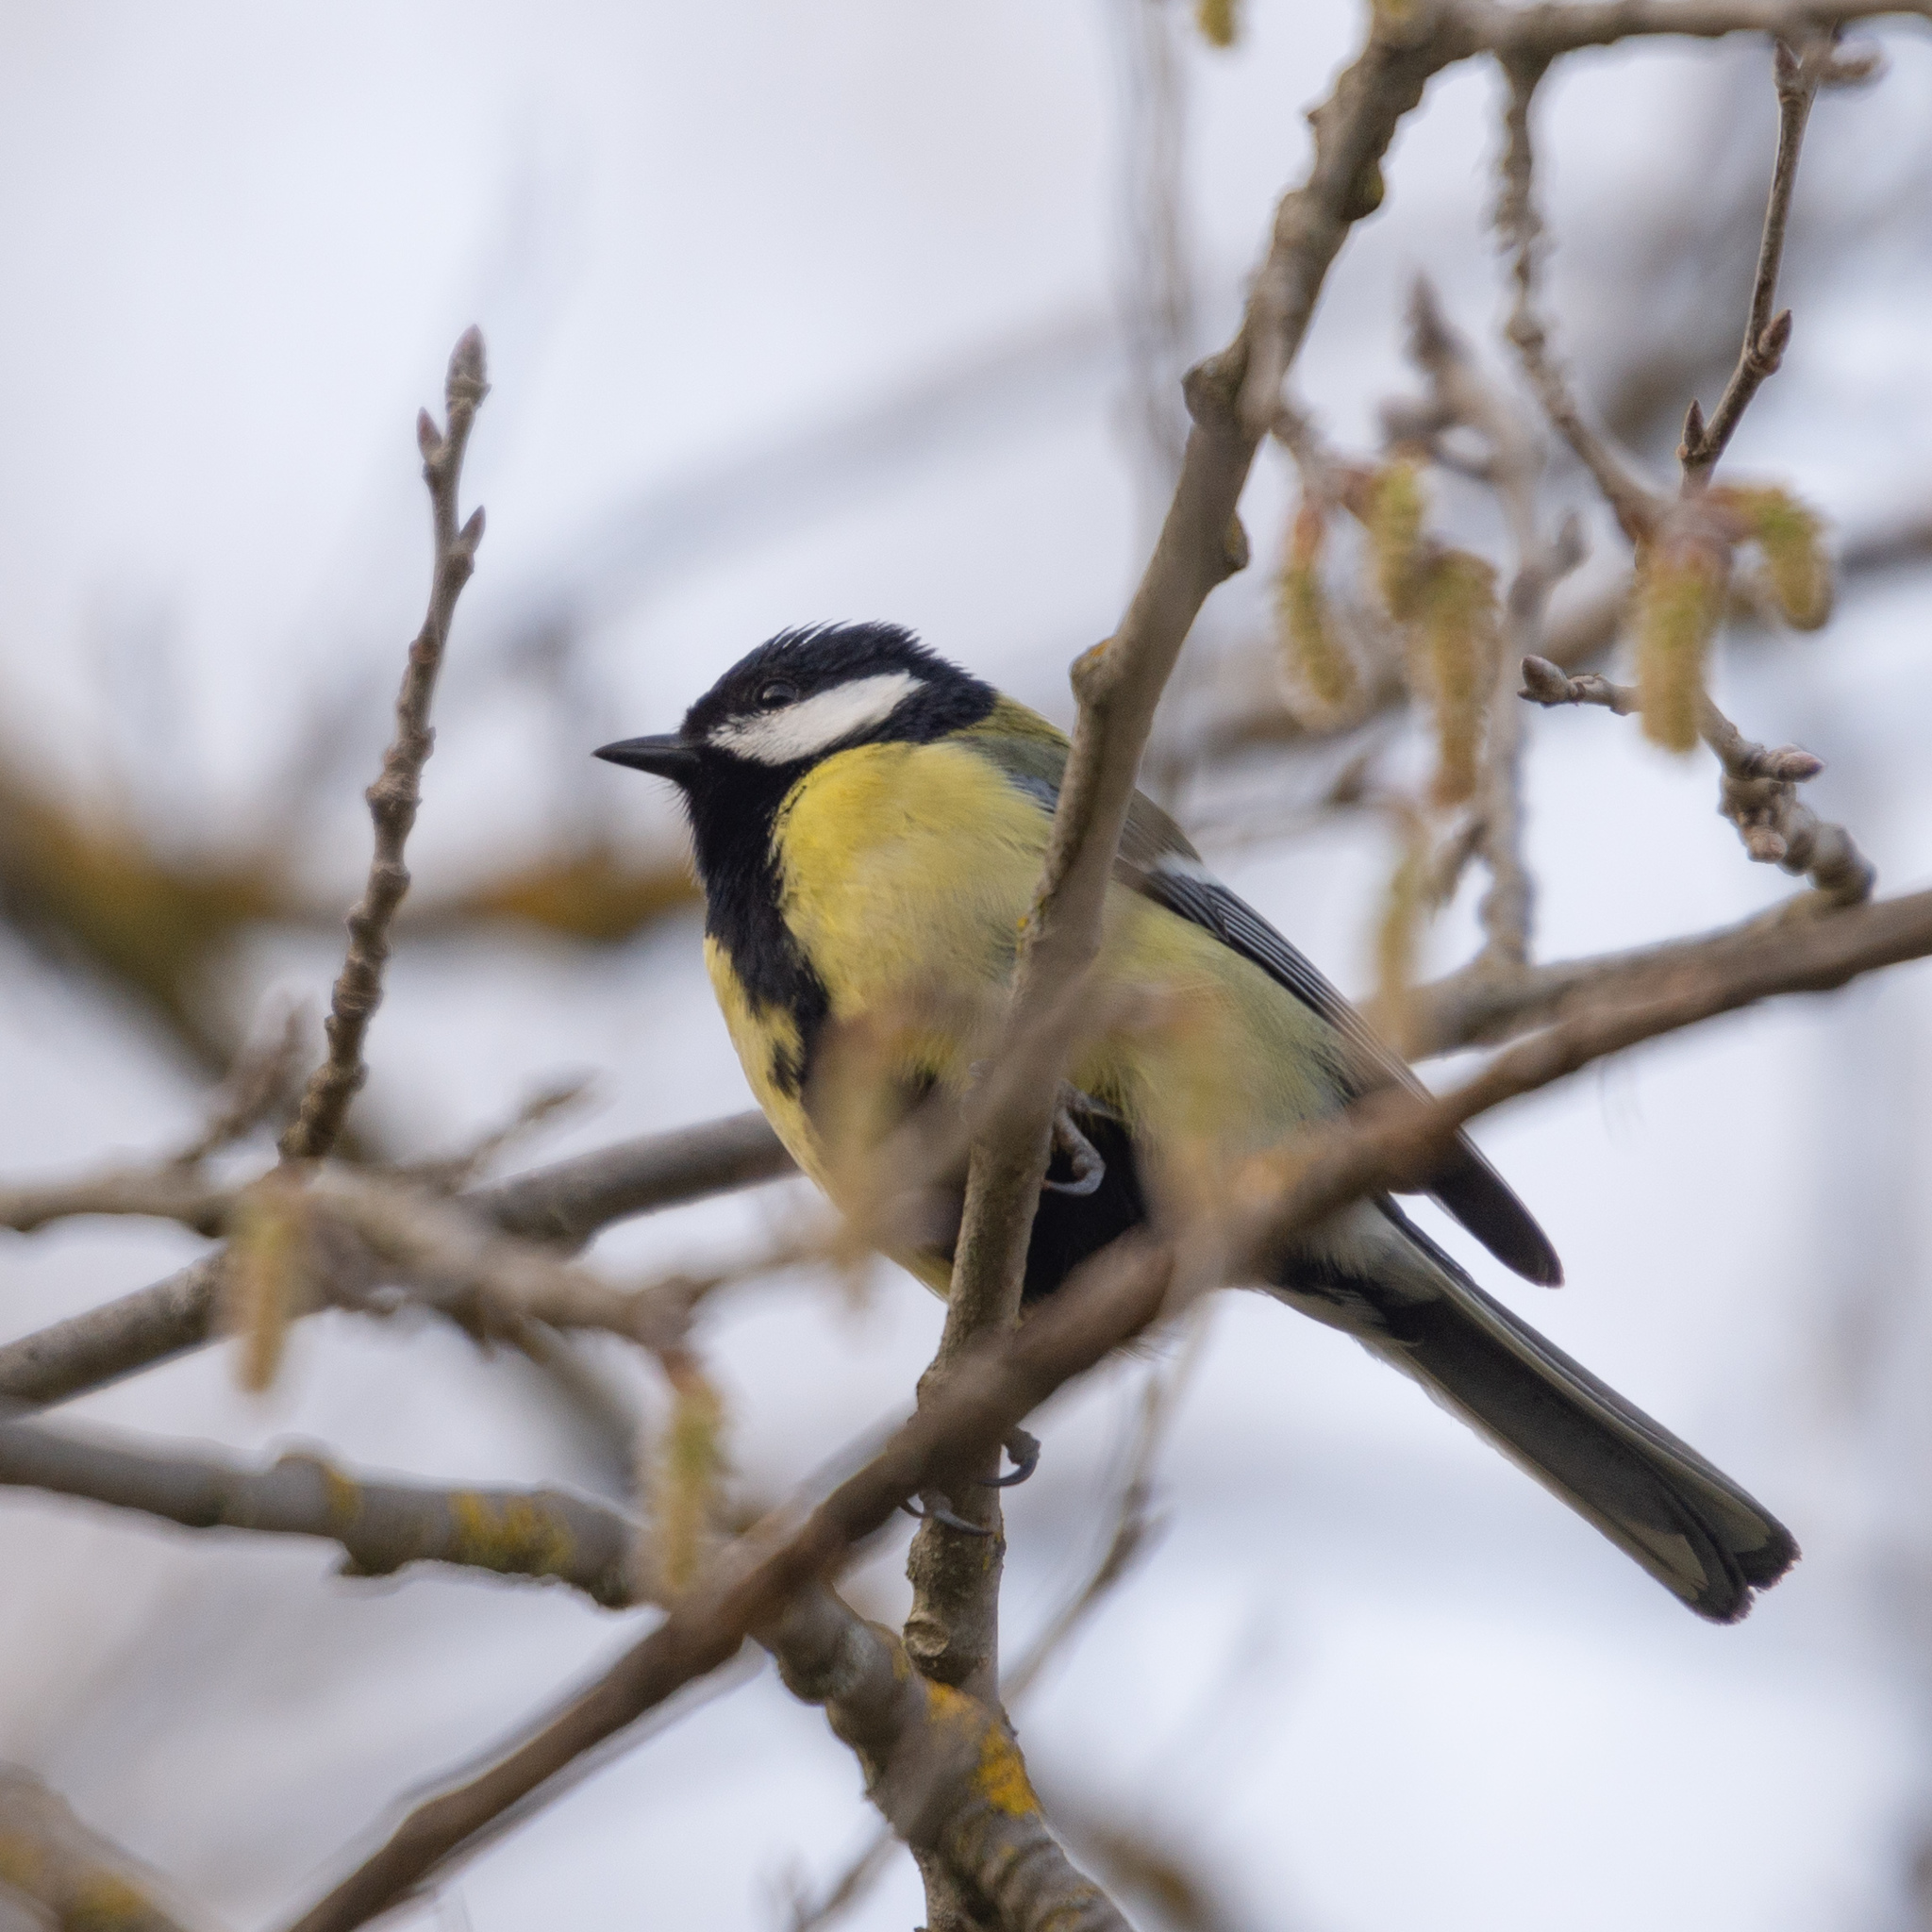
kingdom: Animalia
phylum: Chordata
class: Aves
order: Passeriformes
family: Paridae
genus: Parus
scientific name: Parus major
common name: Great tit
